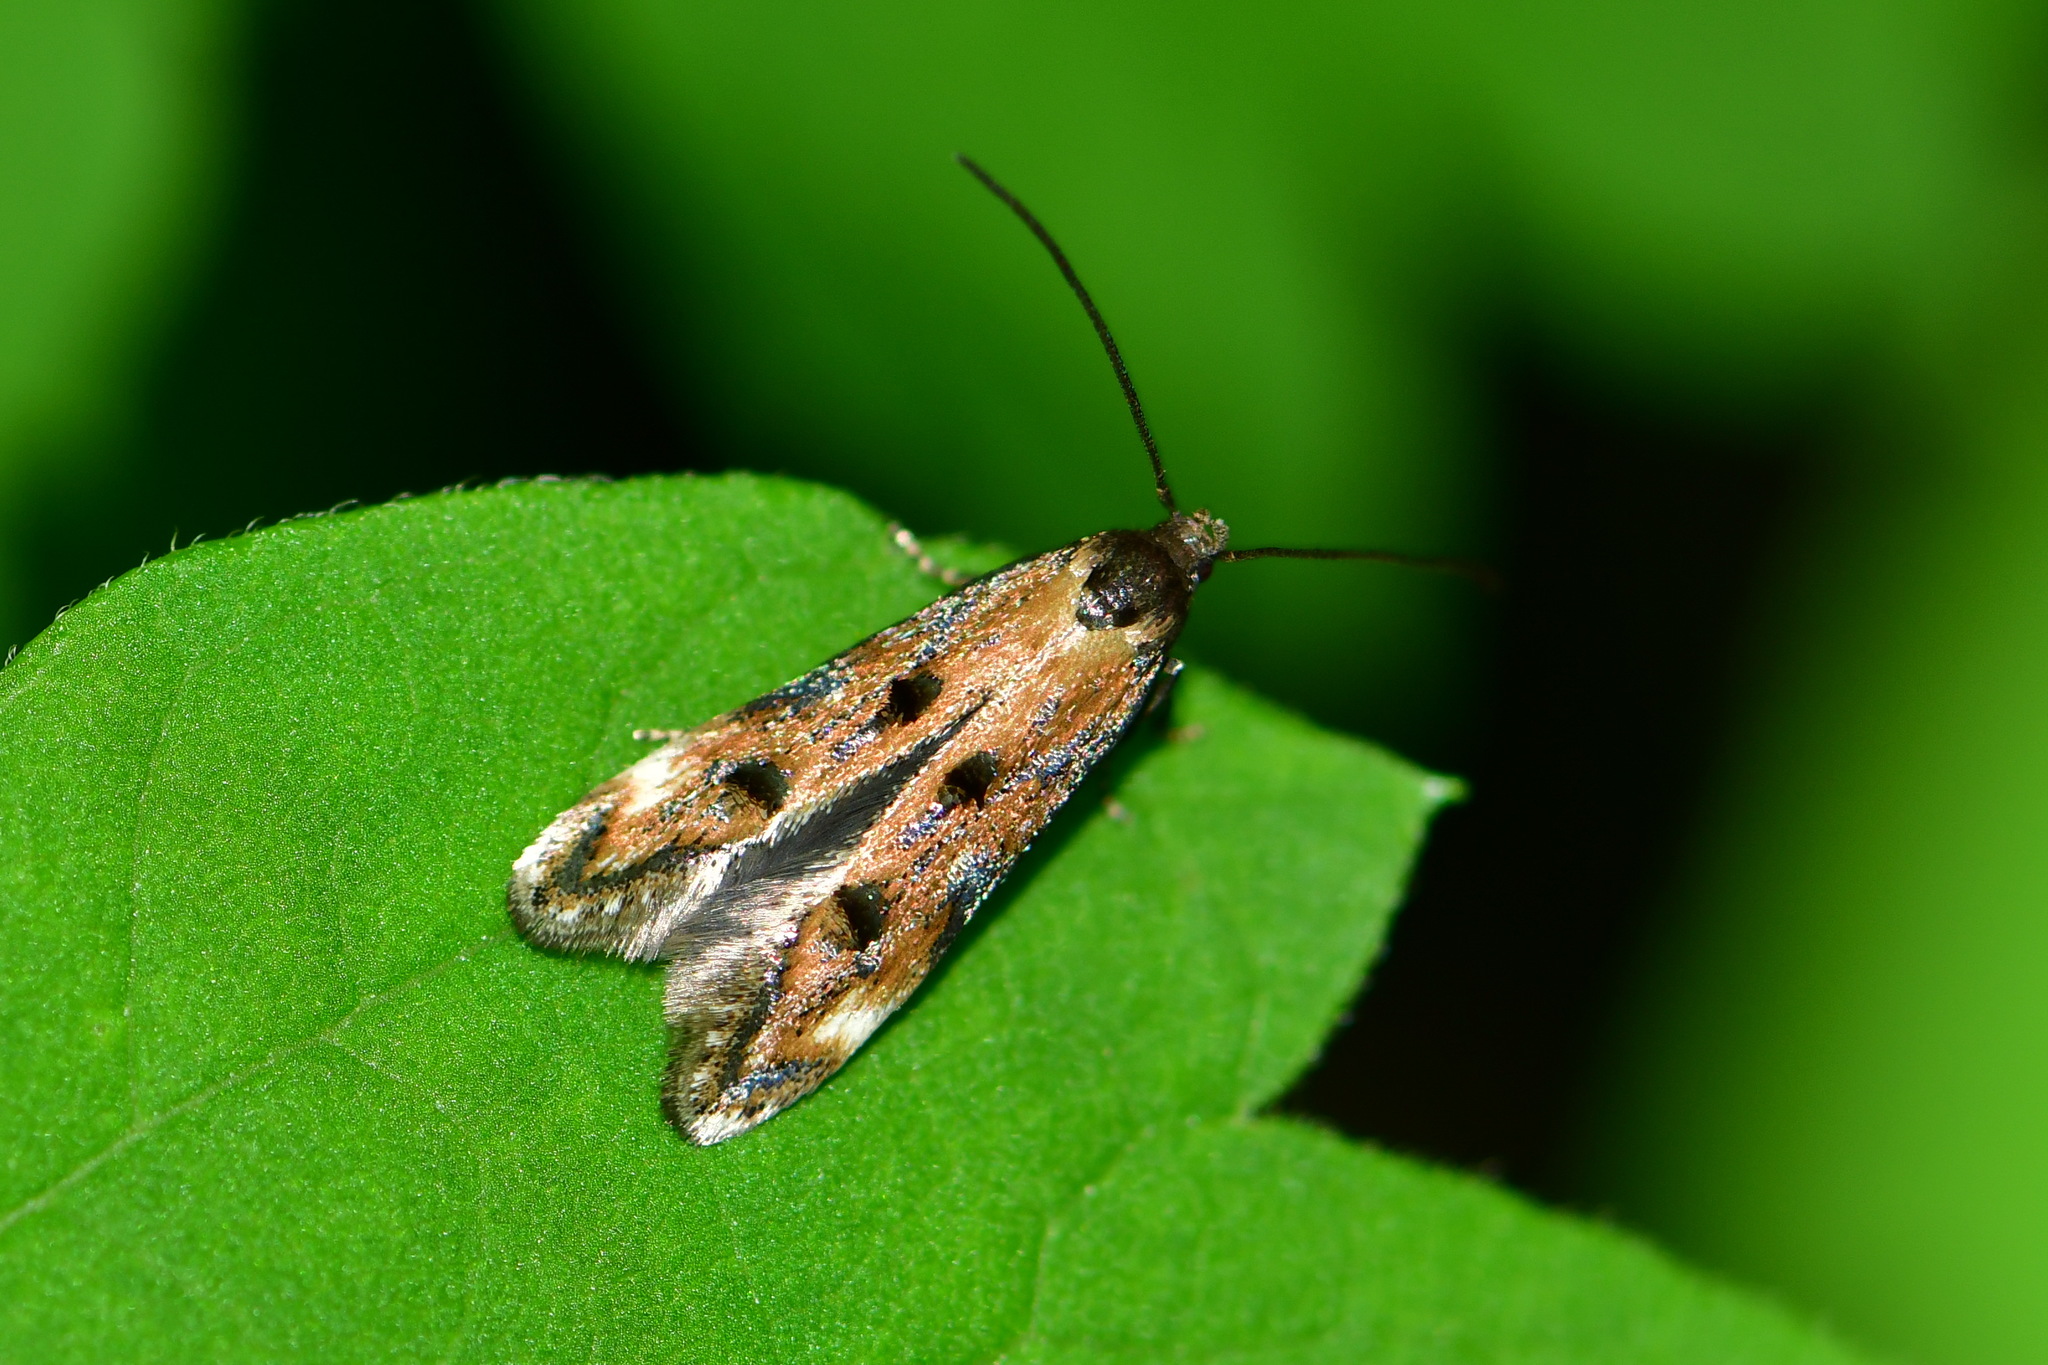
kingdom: Animalia
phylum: Arthropoda
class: Insecta
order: Lepidoptera
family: Momphidae
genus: Mompha
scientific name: Mompha idaei
